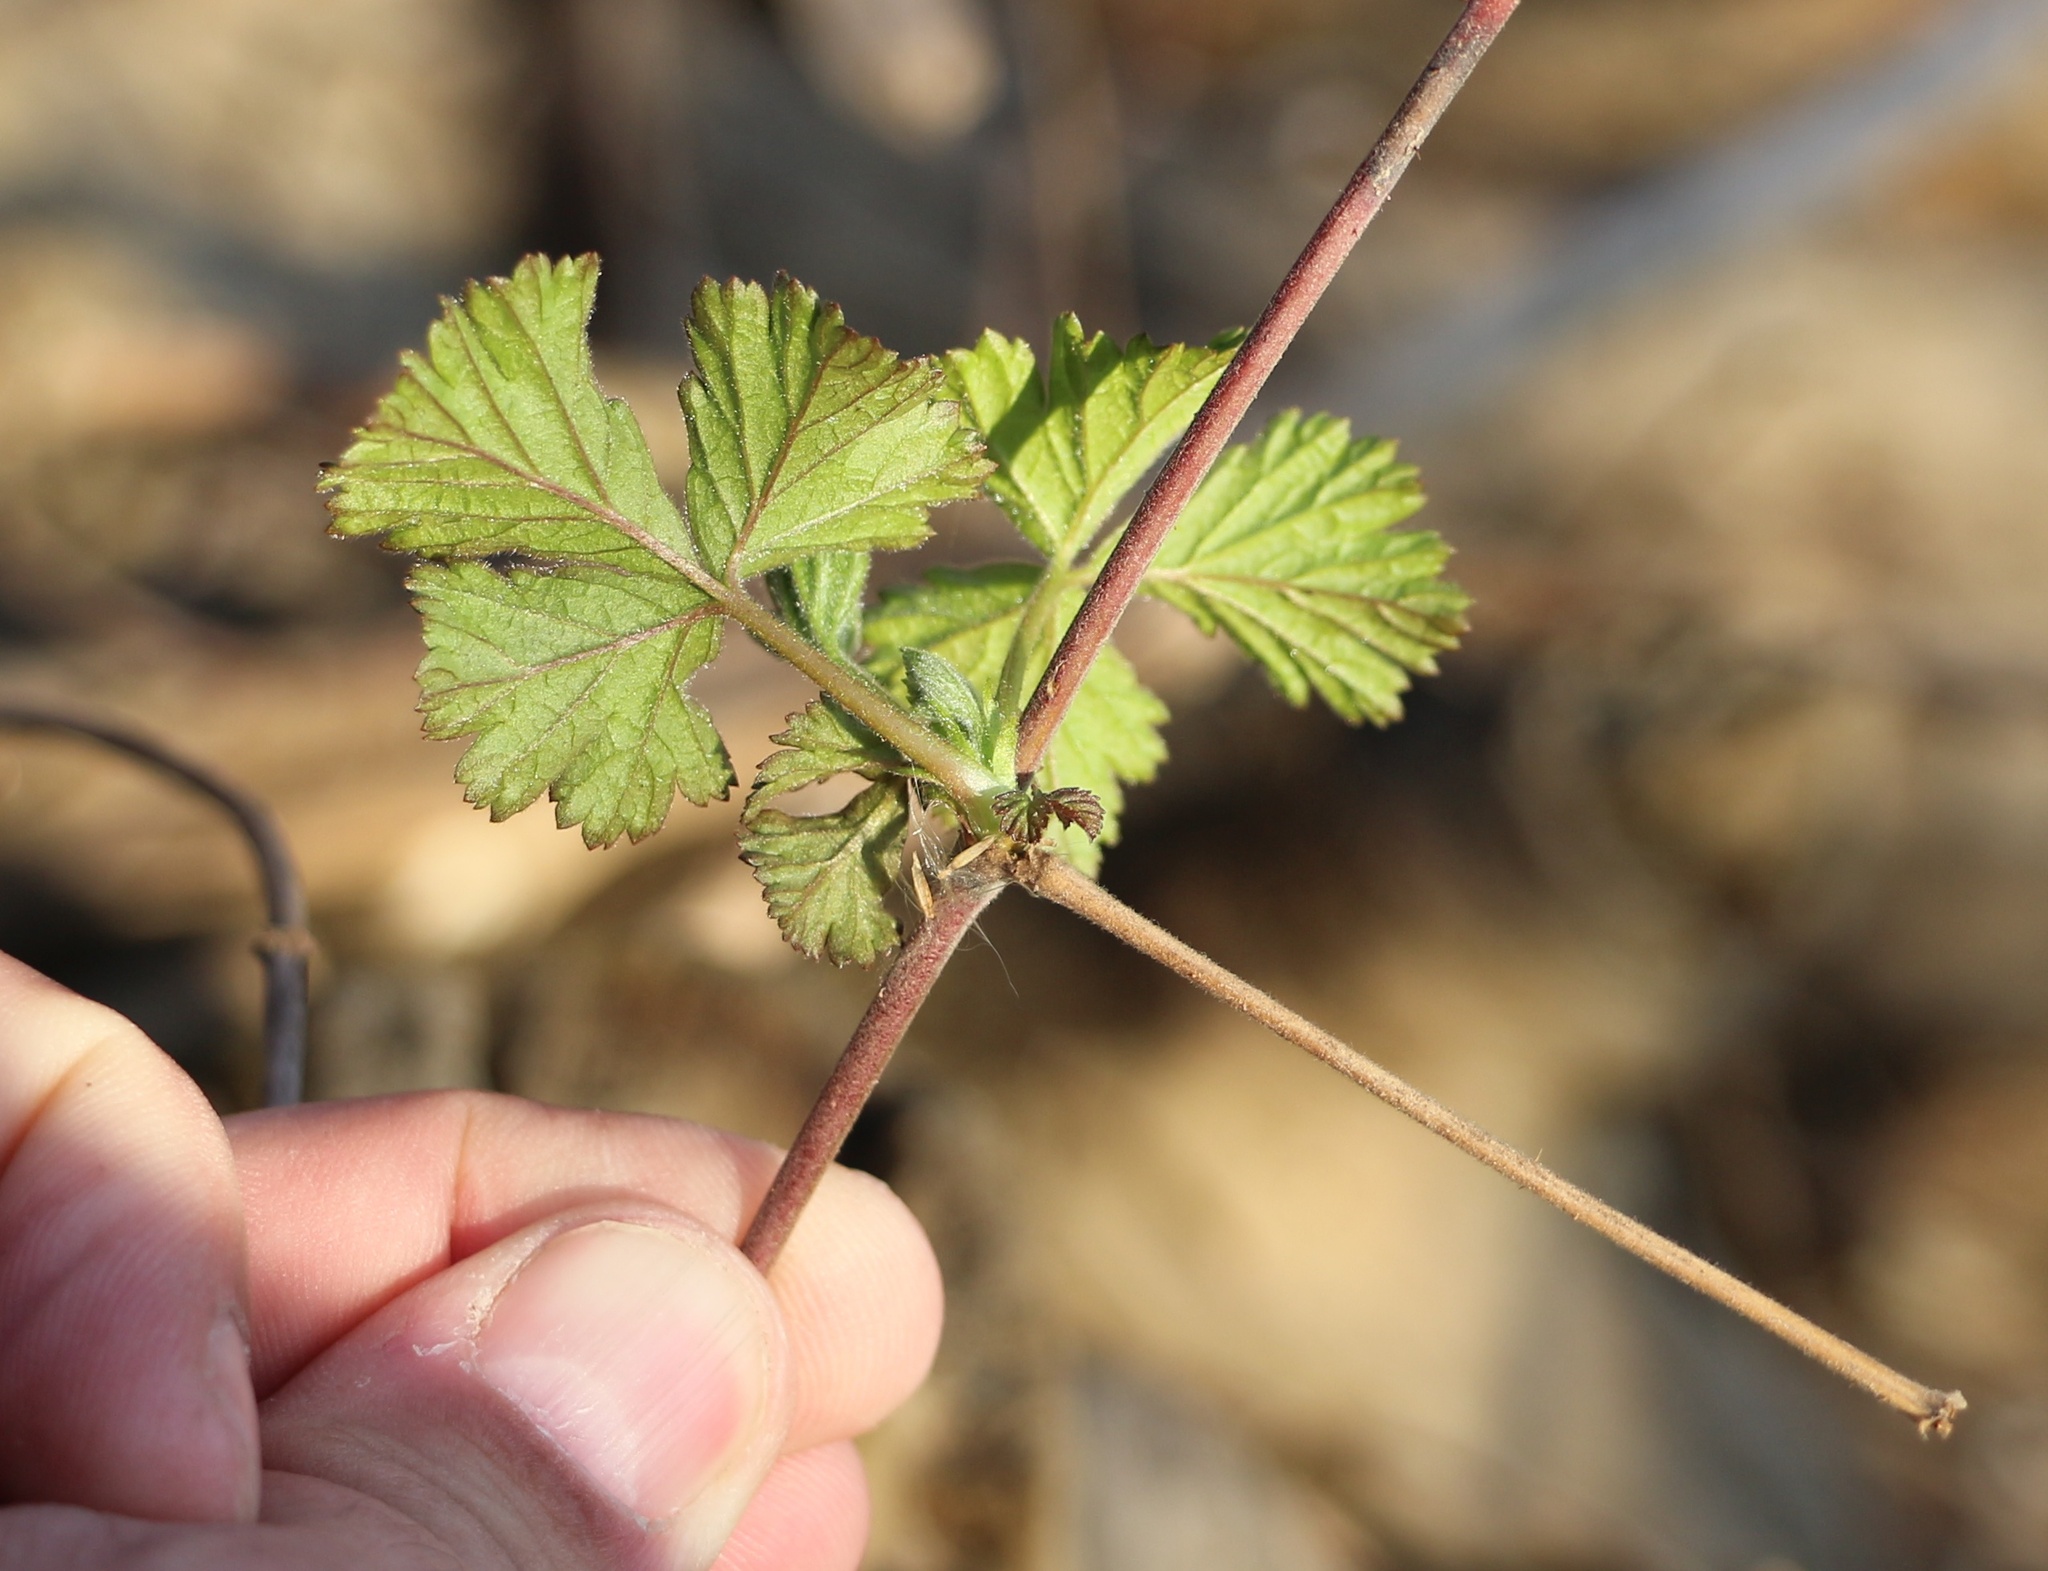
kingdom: Plantae
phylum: Tracheophyta
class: Magnoliopsida
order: Rosales
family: Rosaceae
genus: Rubus
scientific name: Rubus caesius
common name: Dewberry
